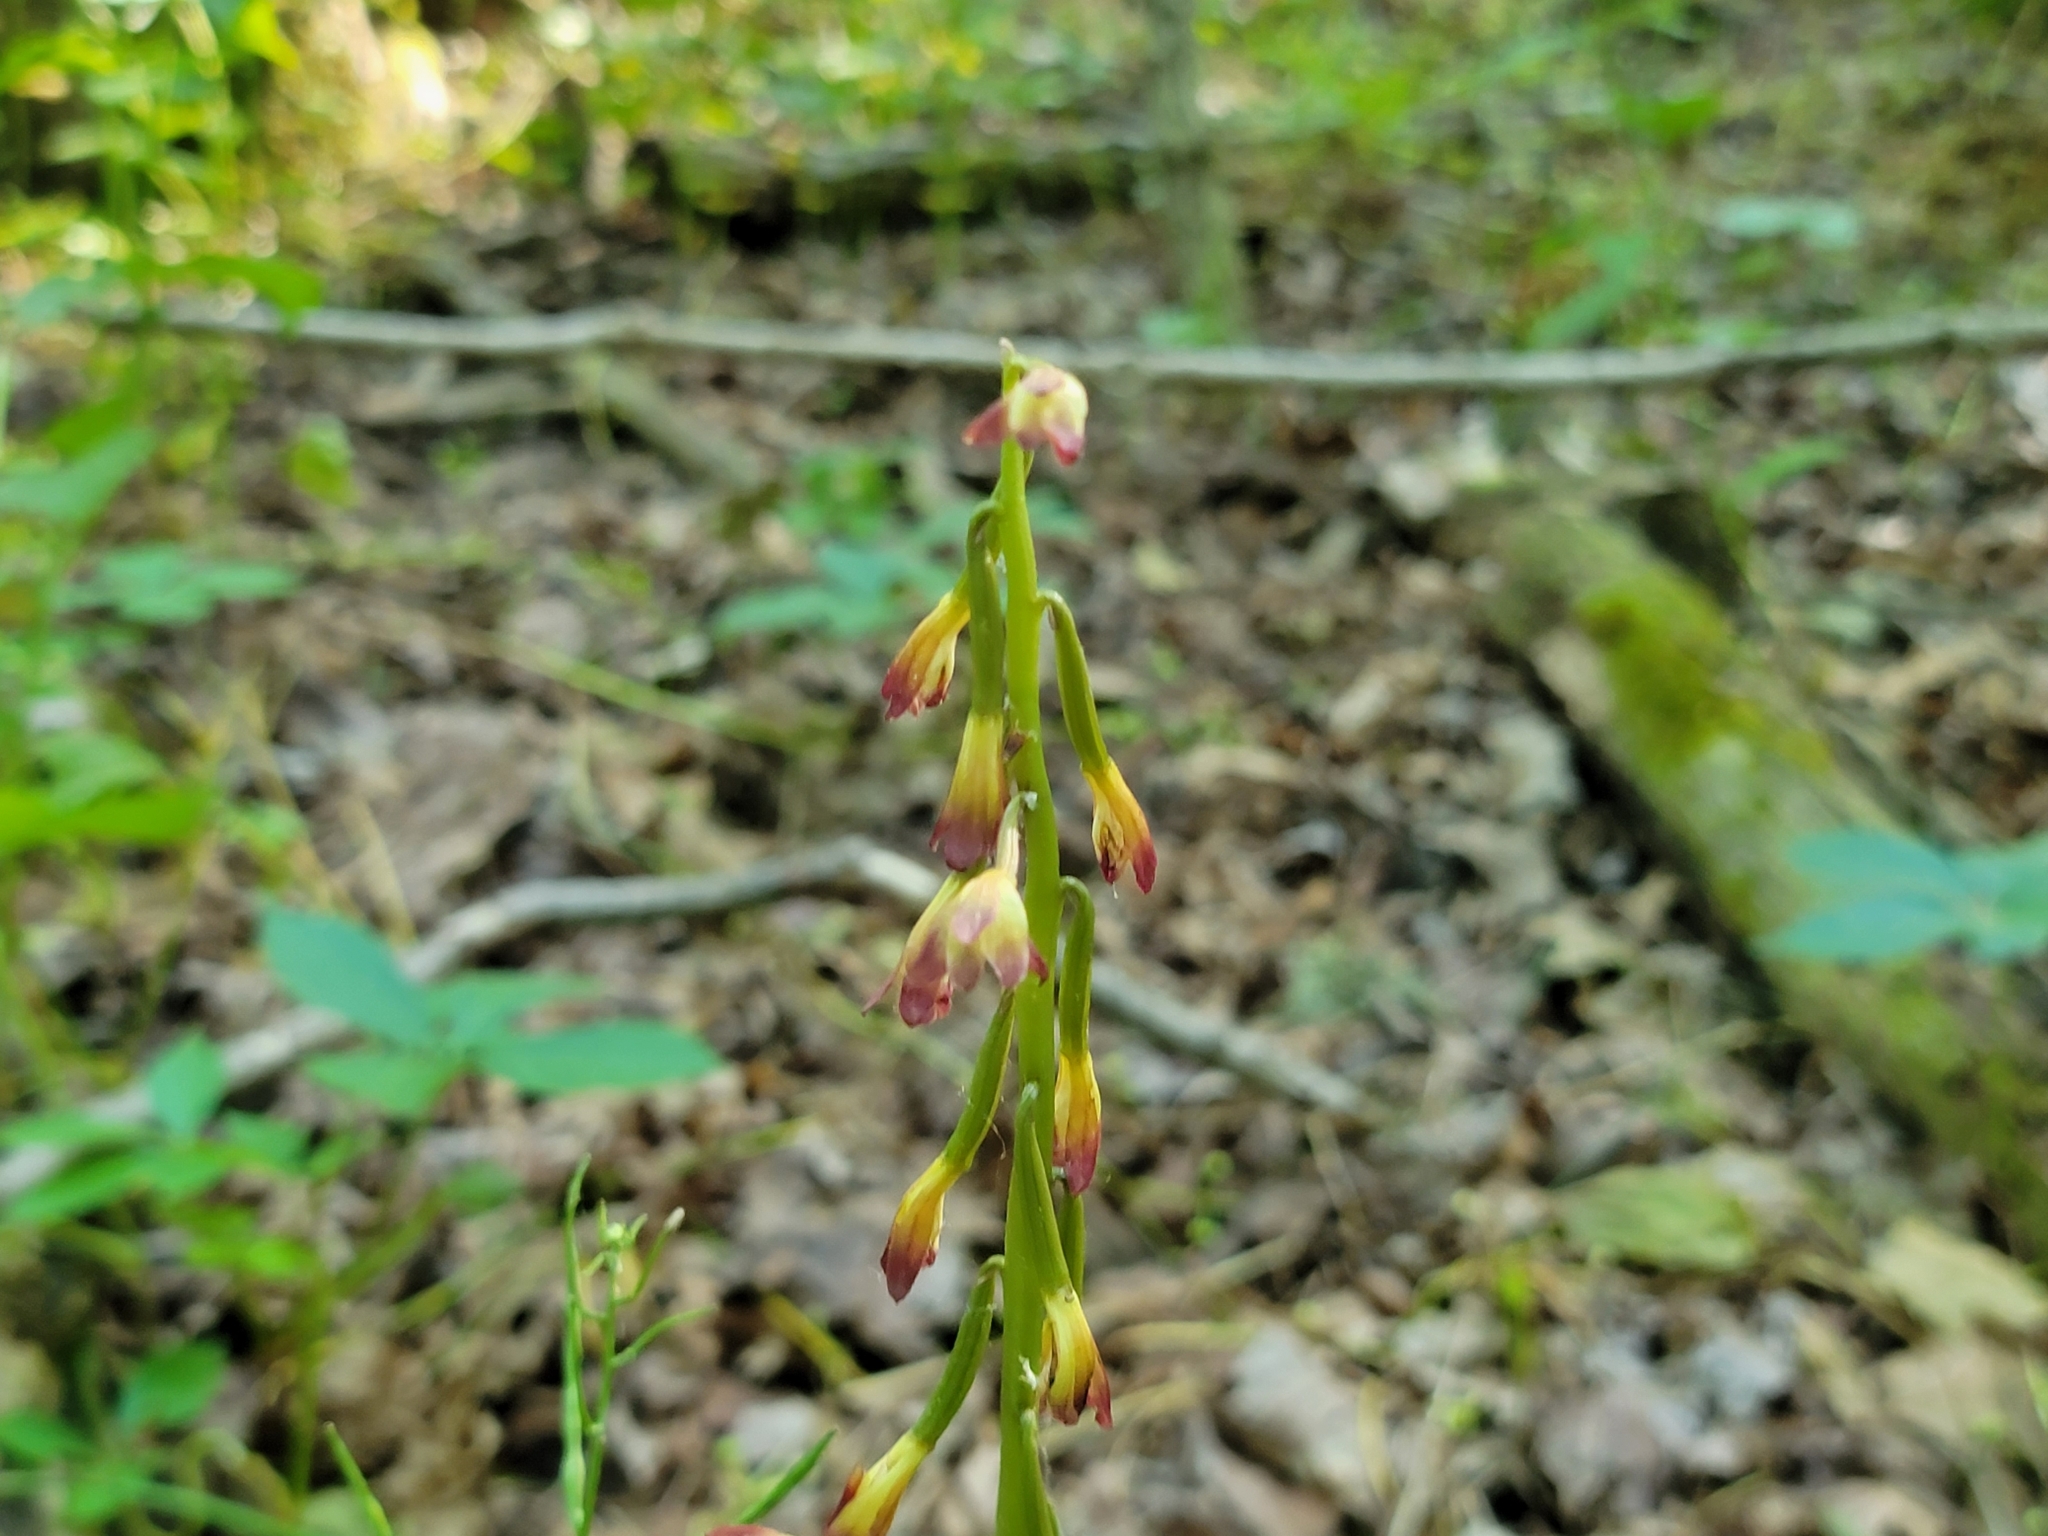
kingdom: Plantae
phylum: Tracheophyta
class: Liliopsida
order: Asparagales
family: Orchidaceae
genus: Aplectrum
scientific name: Aplectrum hyemale
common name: Adam-and-eve
